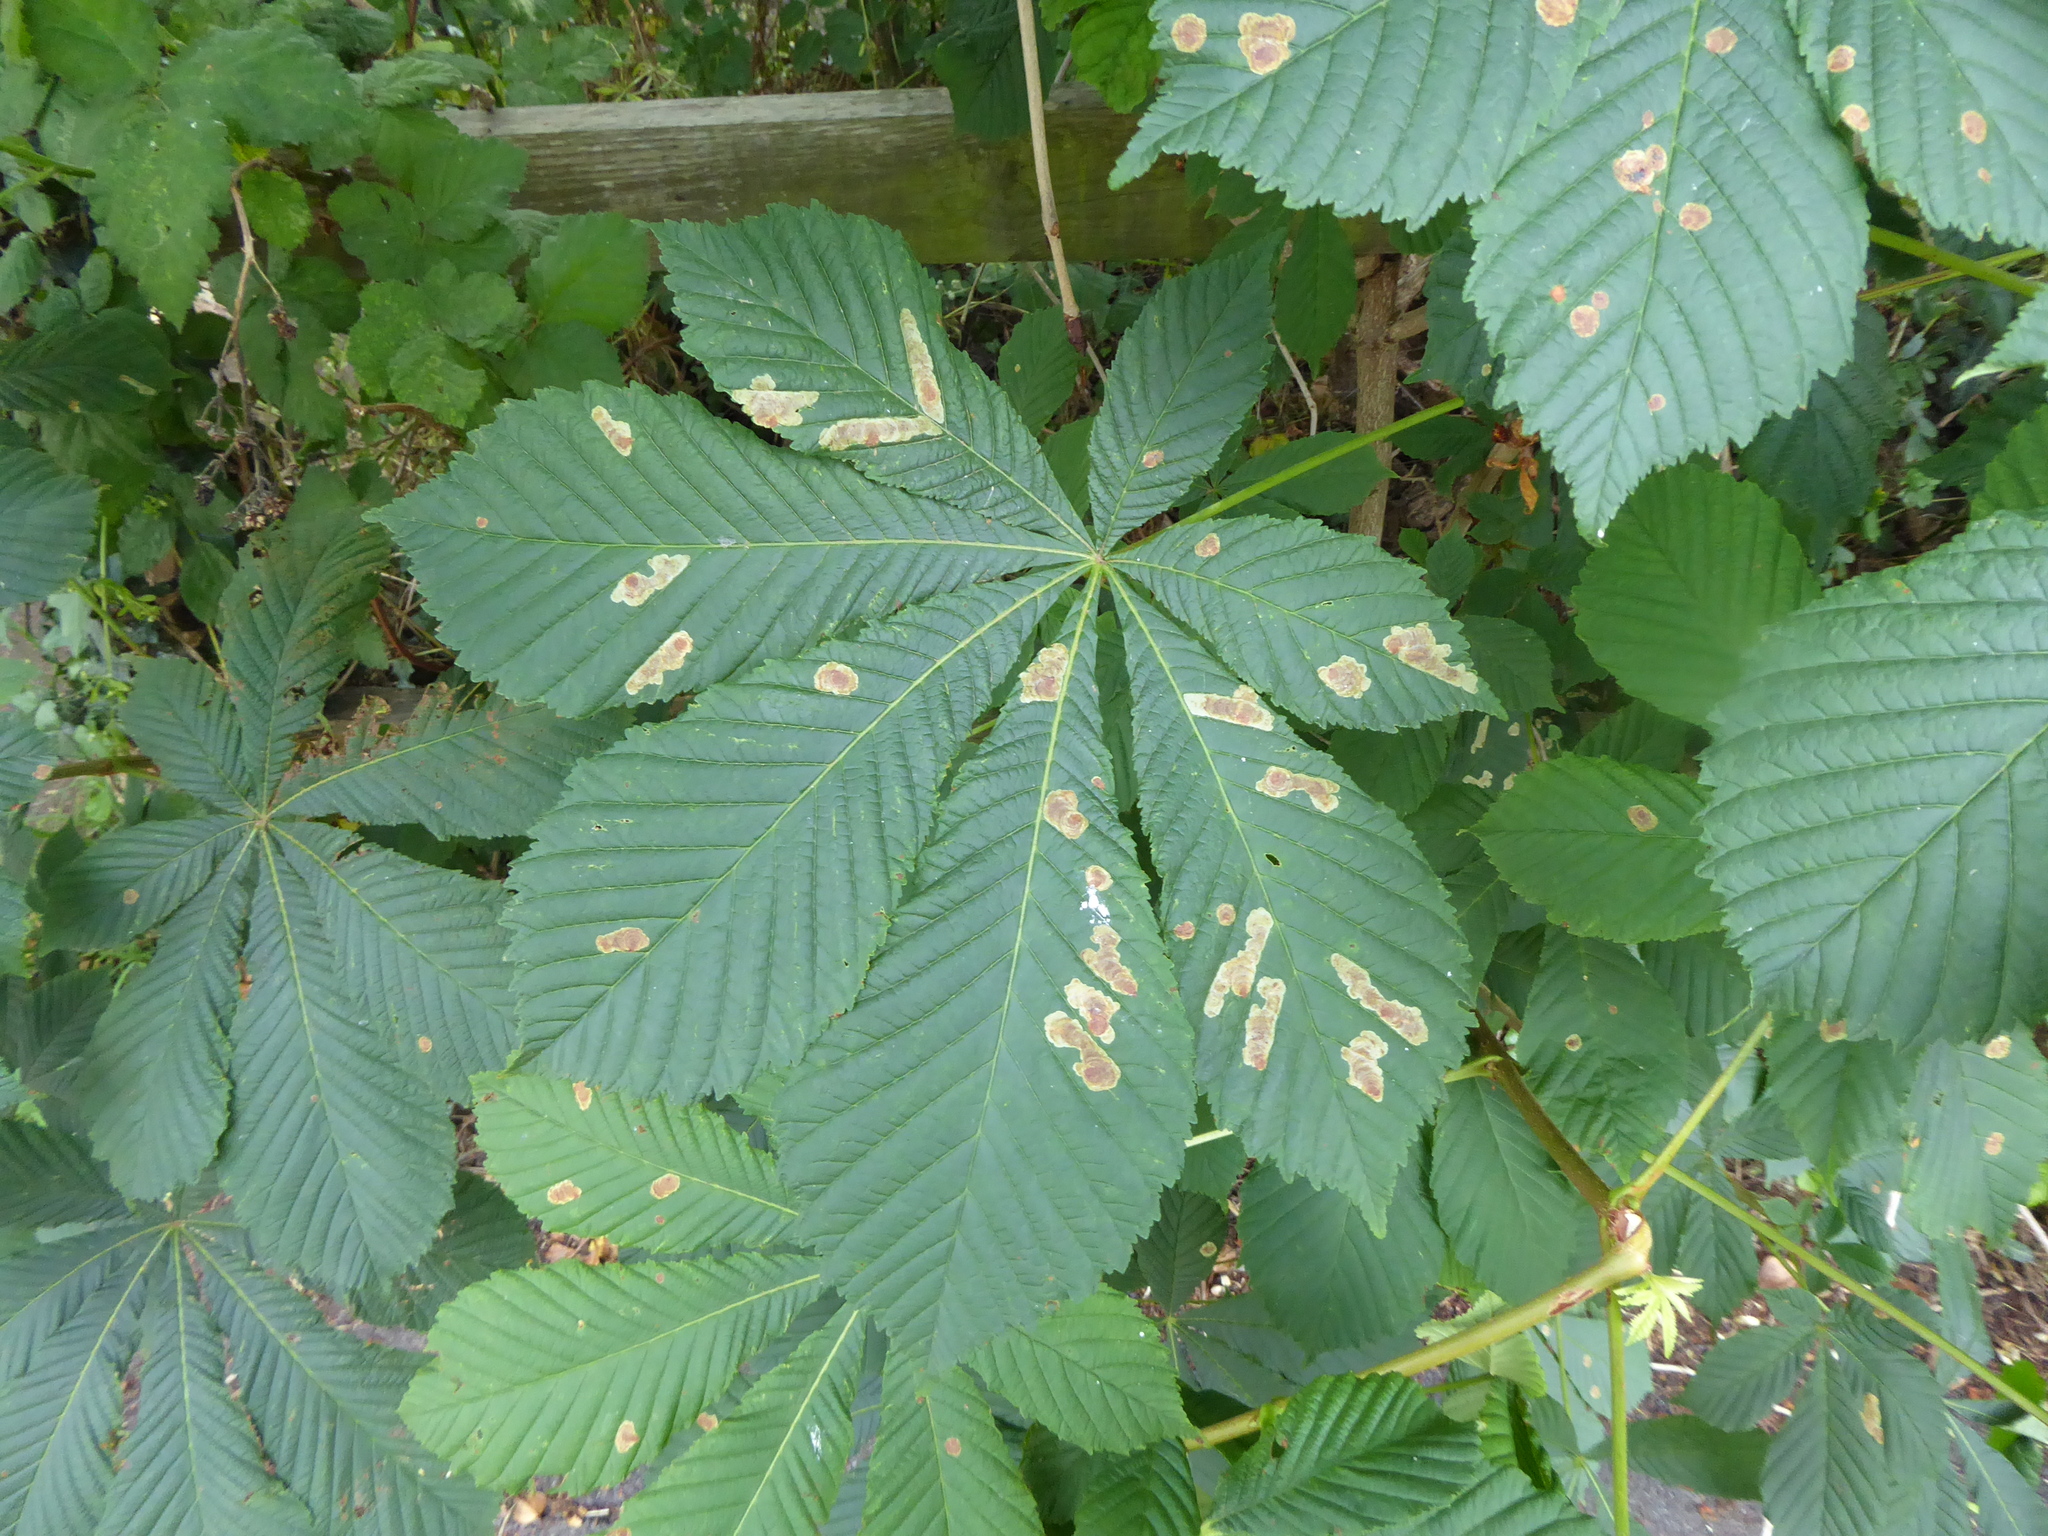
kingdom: Animalia
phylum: Arthropoda
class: Insecta
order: Lepidoptera
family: Gracillariidae
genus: Cameraria
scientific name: Cameraria ohridella
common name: Horse-chestnut leaf-miner
